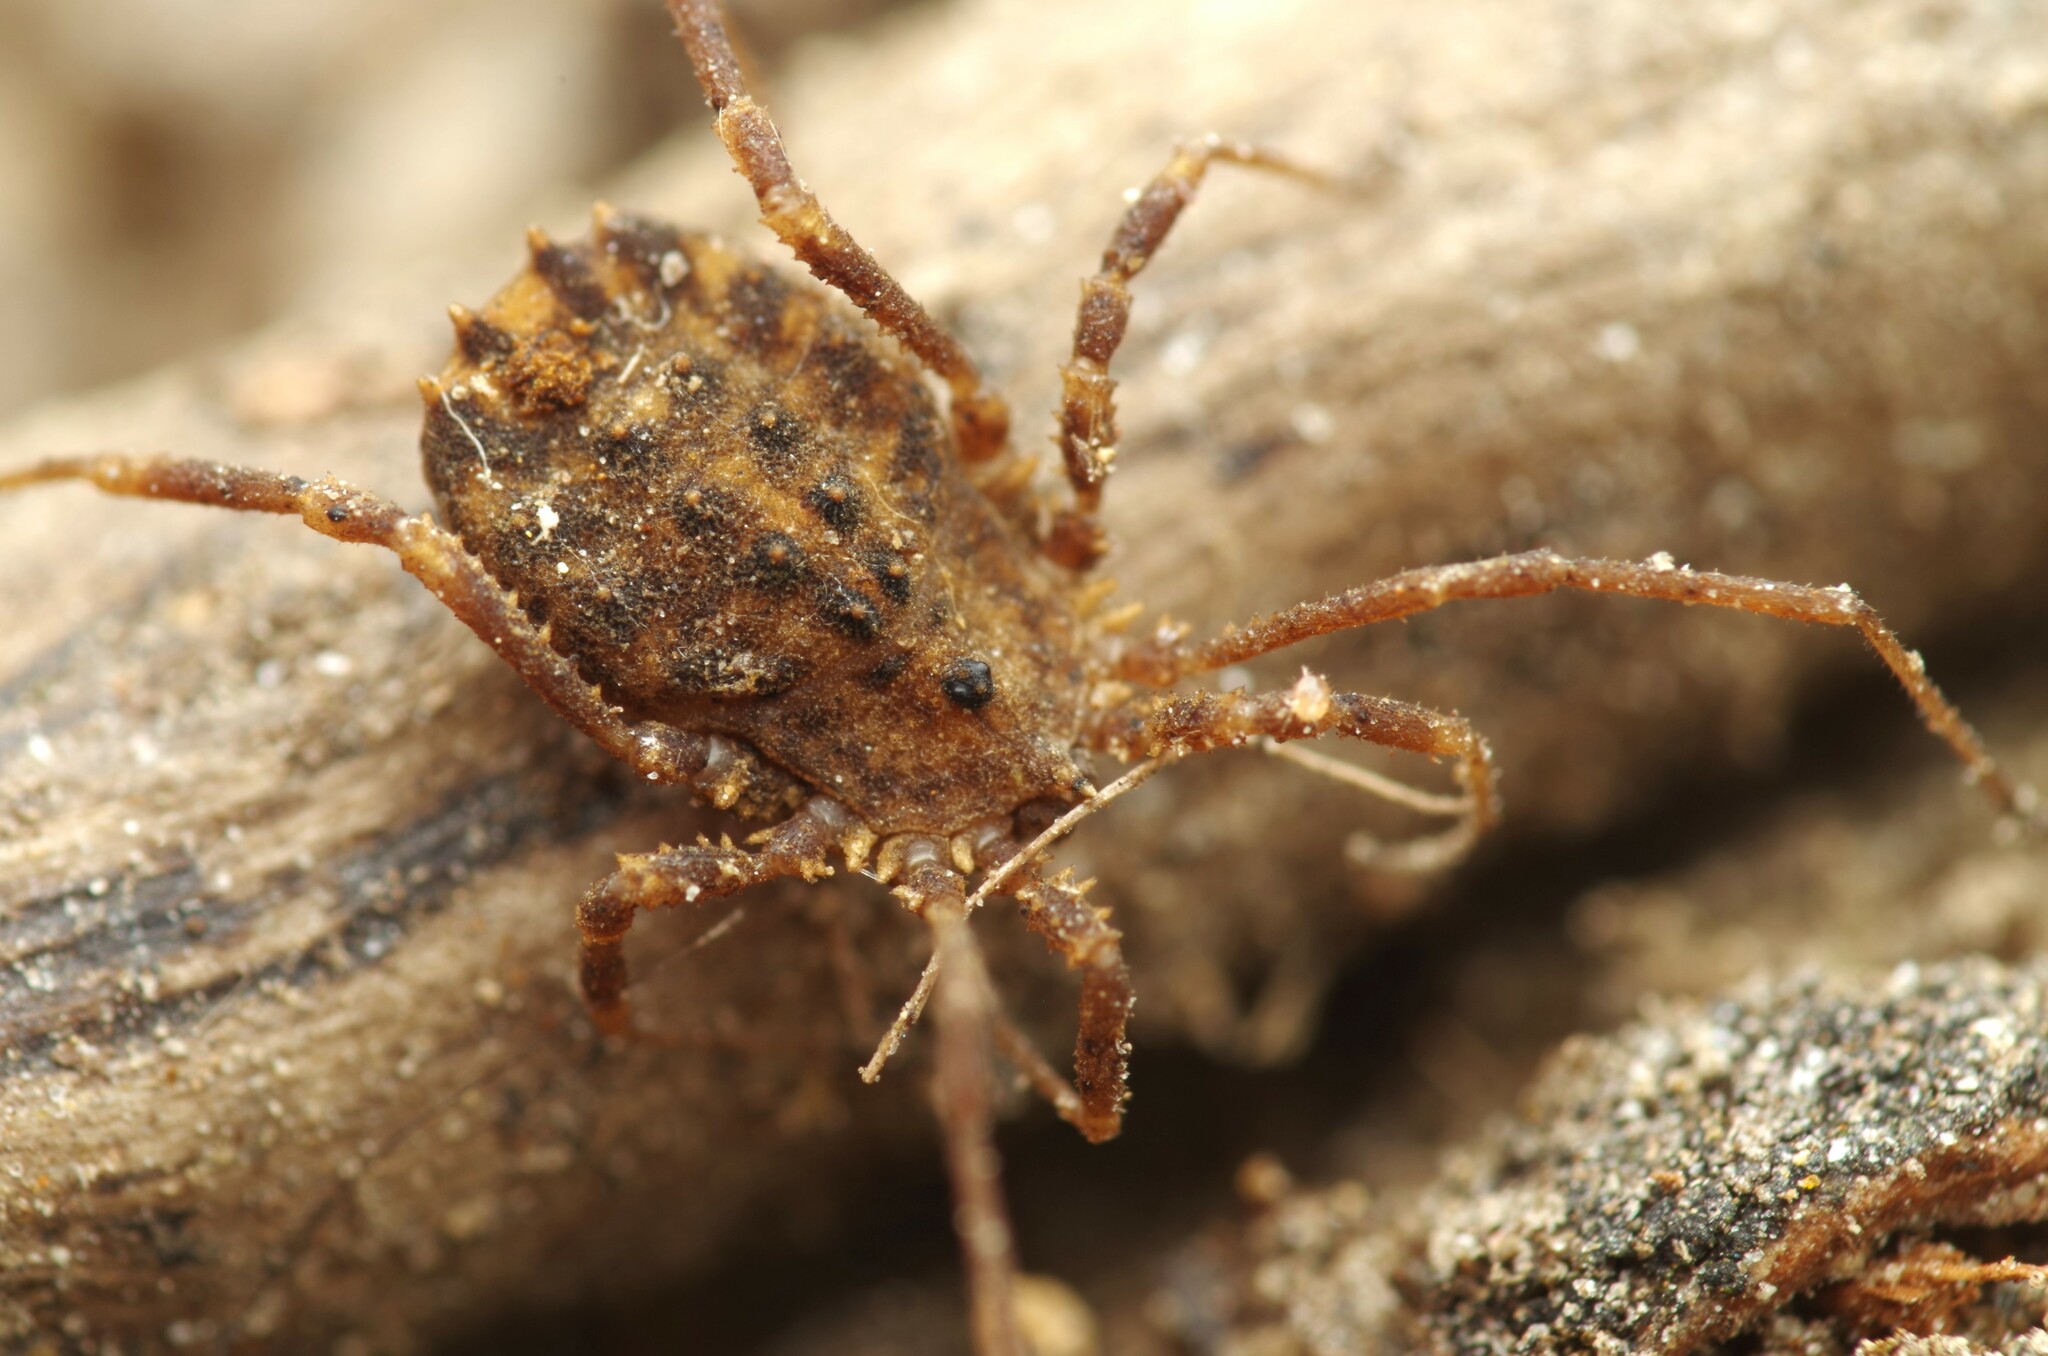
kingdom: Animalia
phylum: Arthropoda
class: Arachnida
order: Opiliones
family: Sclerosomatidae
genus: Homalenotus
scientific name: Homalenotus quadridentatus
